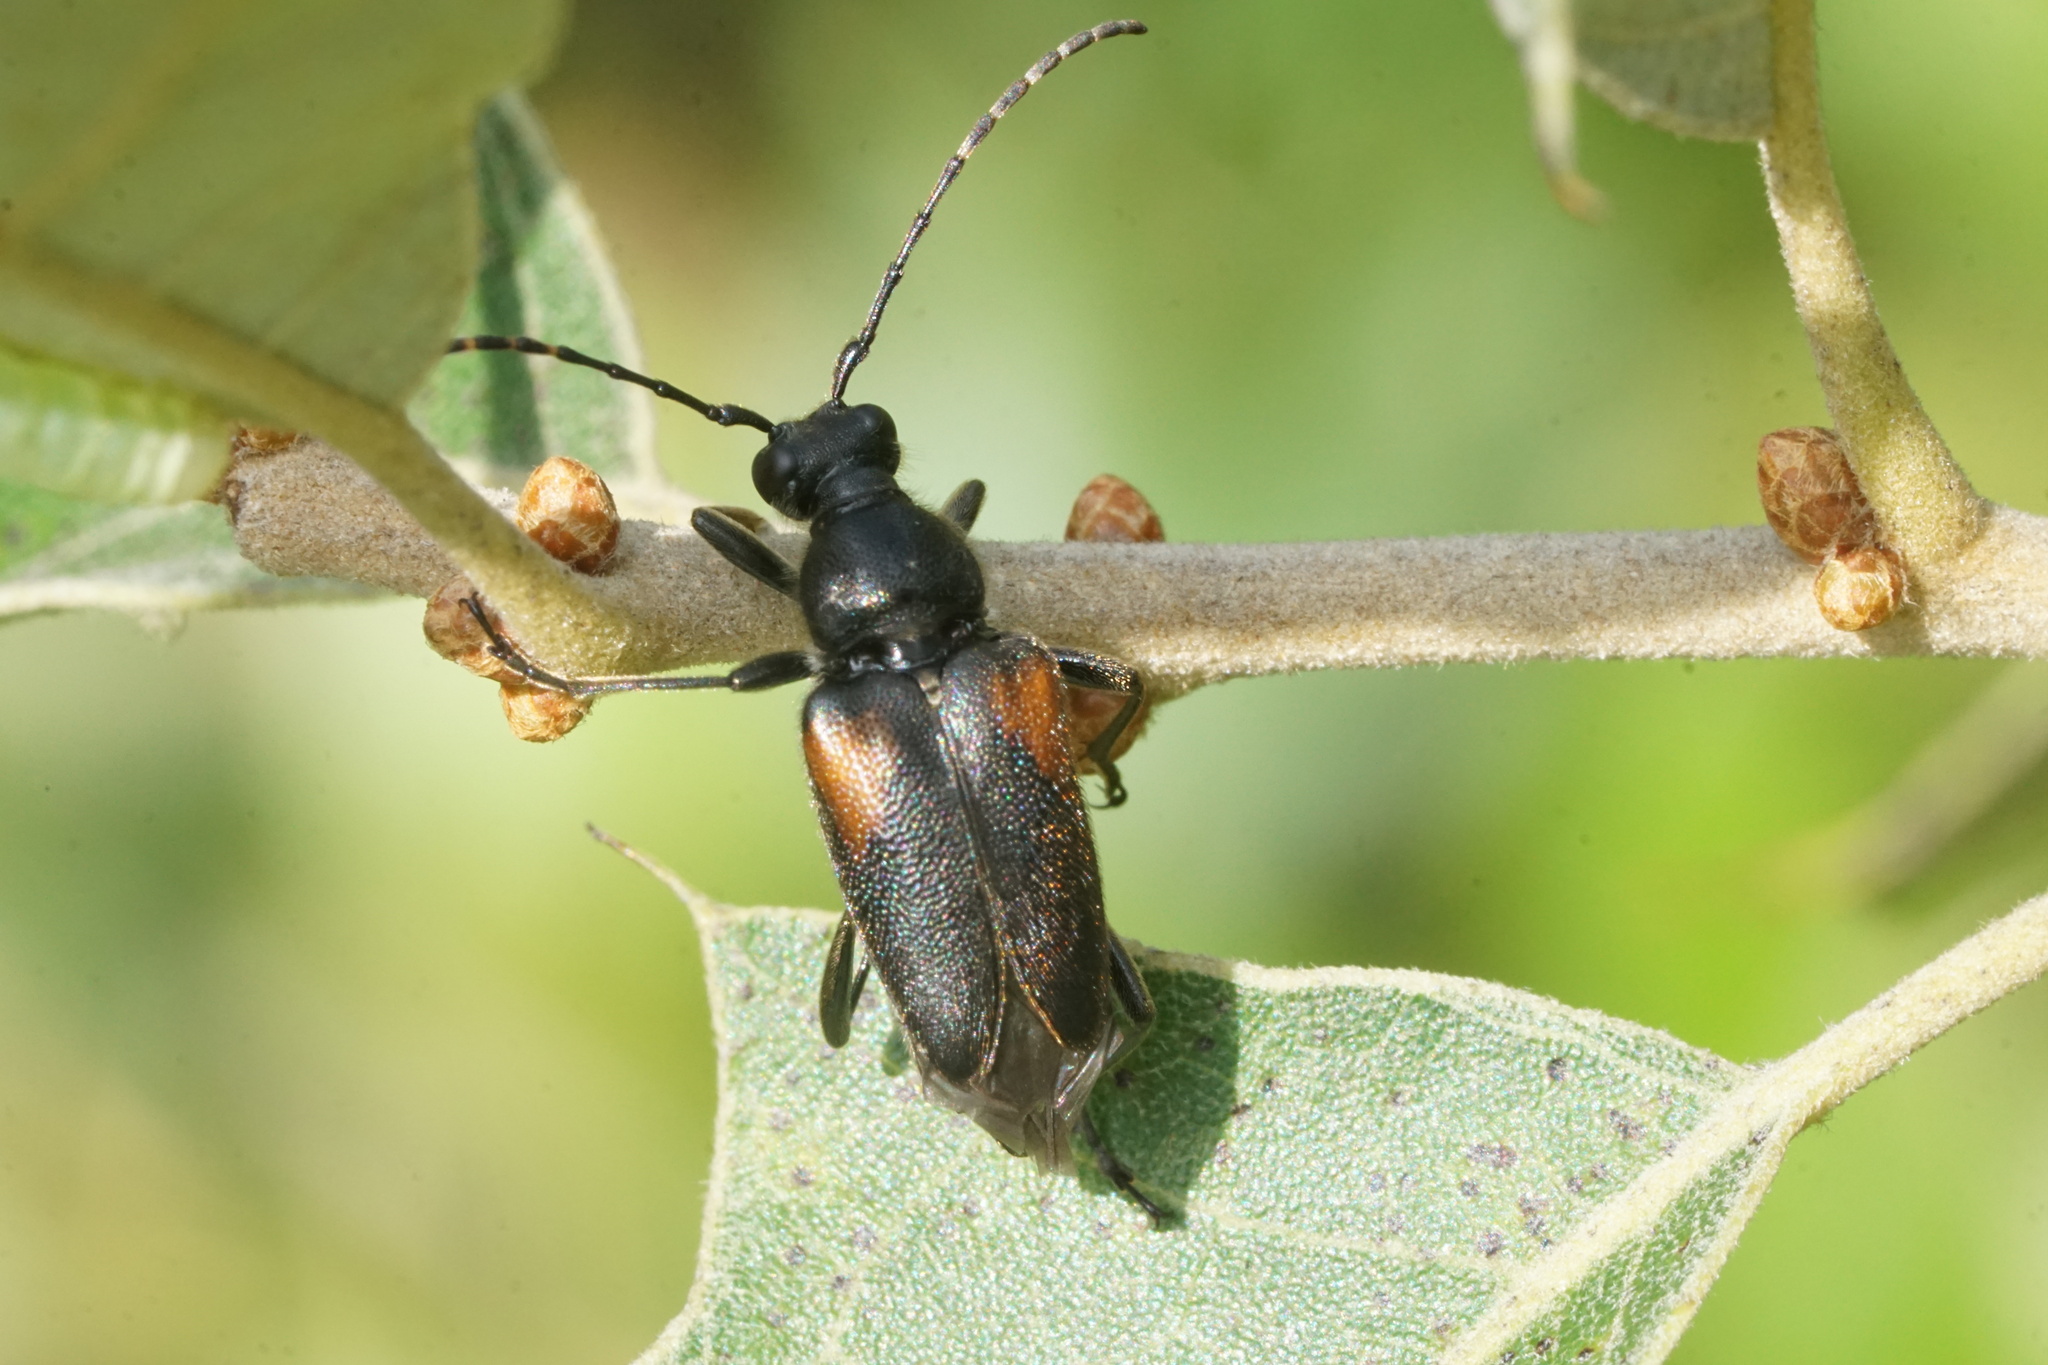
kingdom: Animalia
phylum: Arthropoda
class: Insecta
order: Coleoptera
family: Cerambycidae
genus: Brachyleptura
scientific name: Brachyleptura vagans
